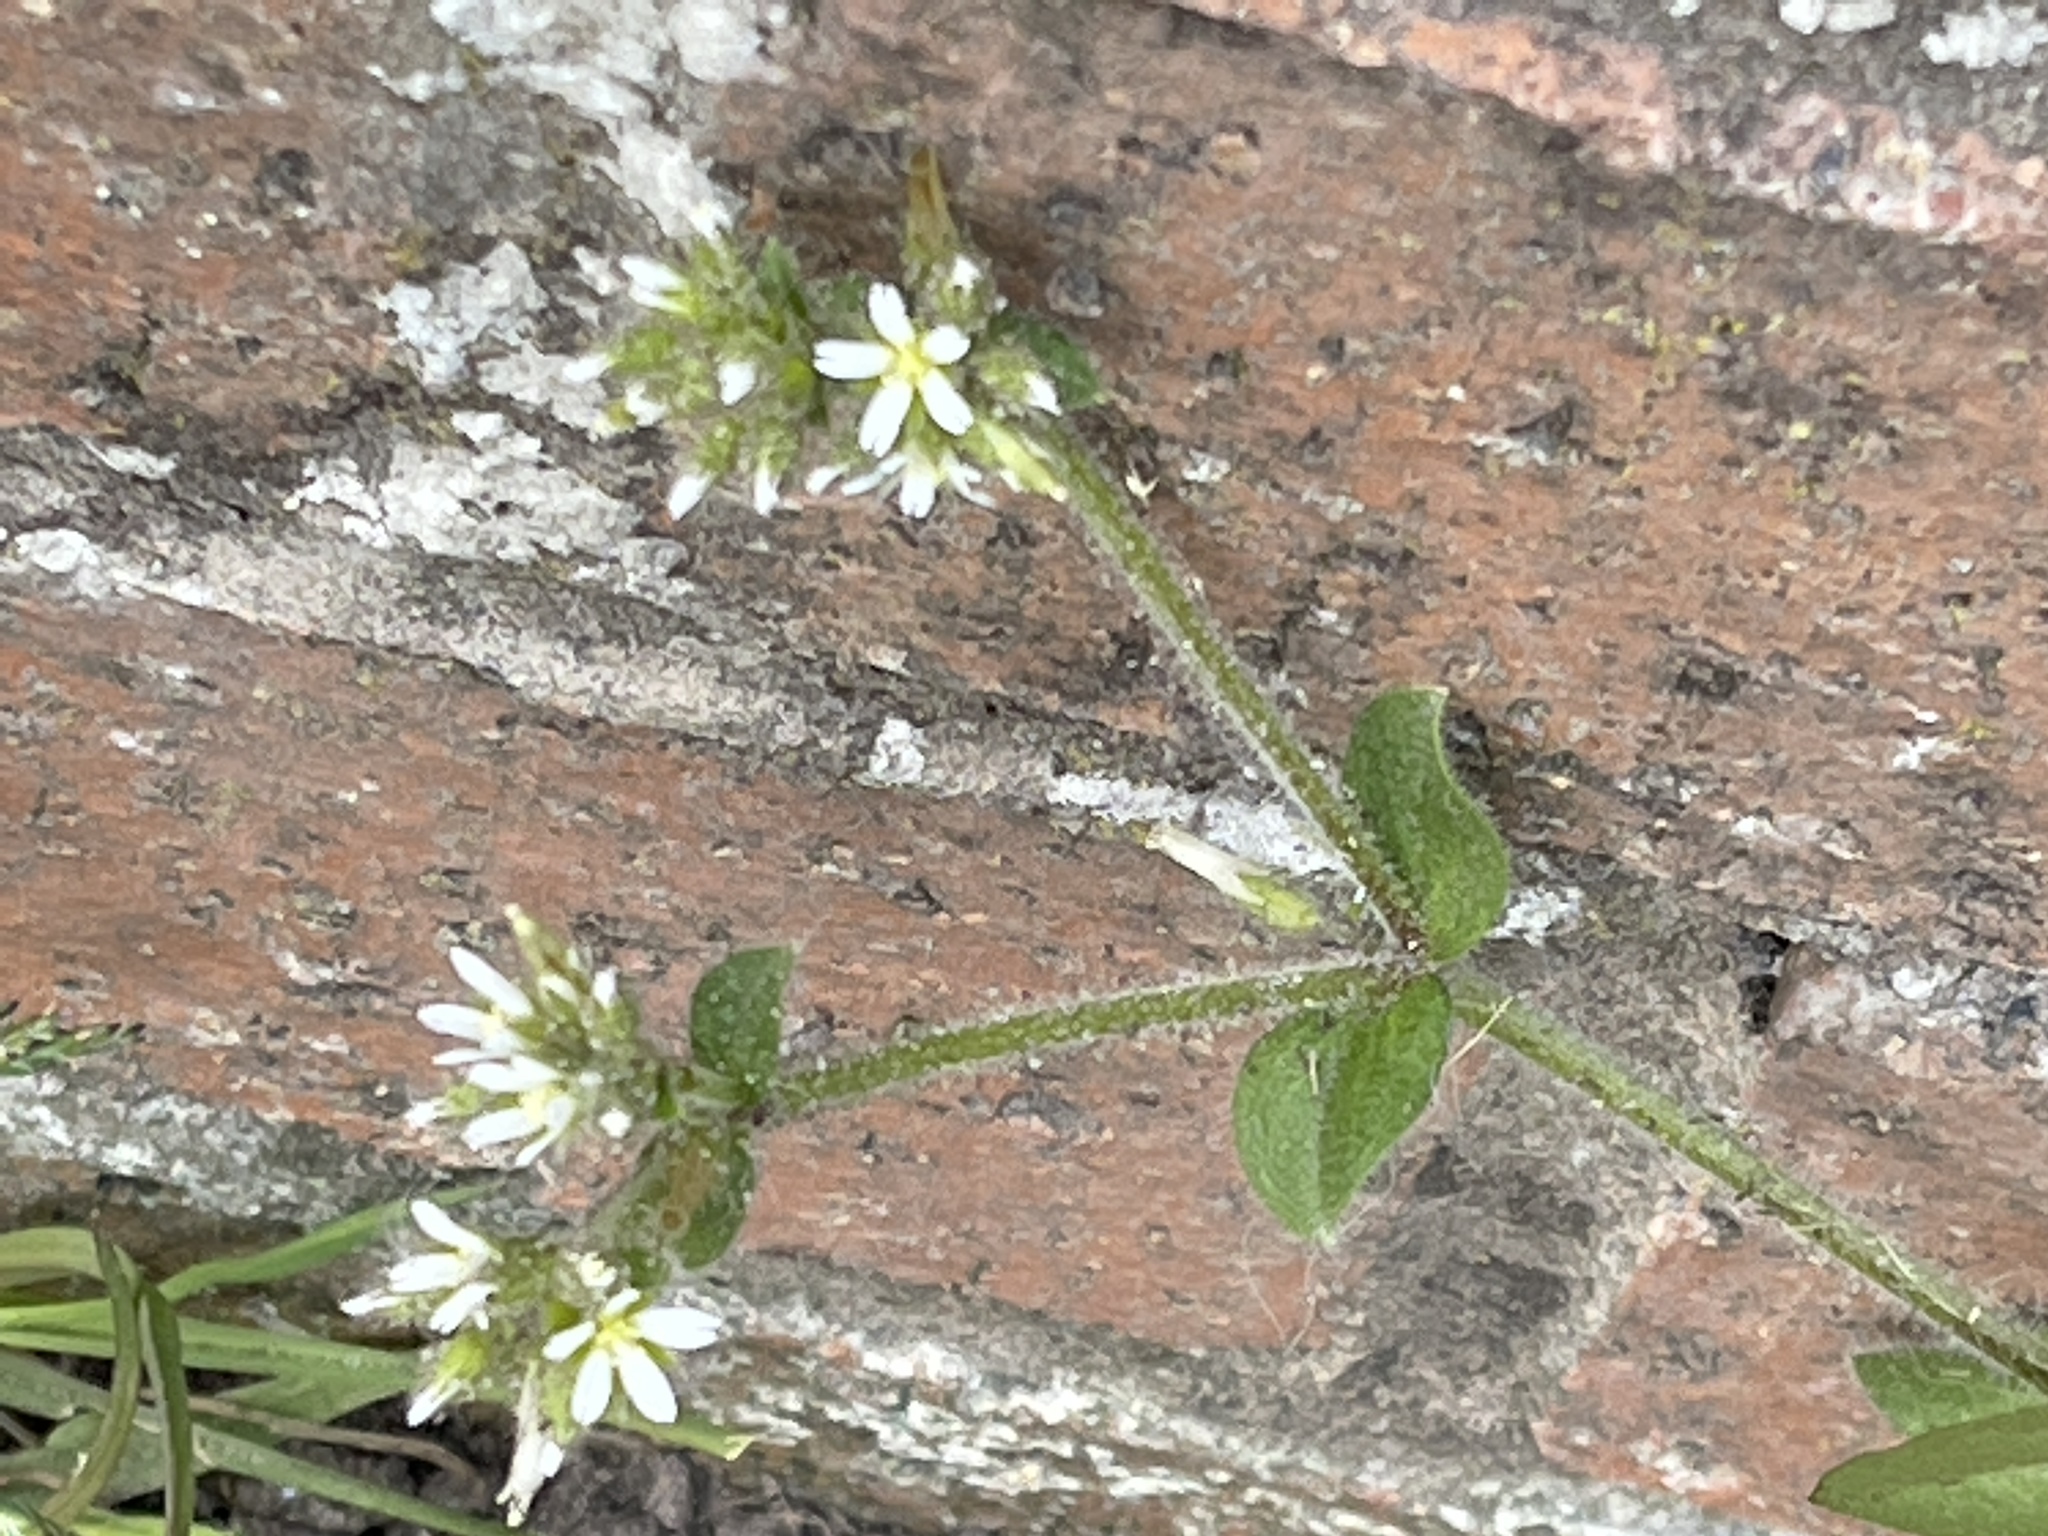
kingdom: Plantae
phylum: Tracheophyta
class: Magnoliopsida
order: Caryophyllales
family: Caryophyllaceae
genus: Cerastium
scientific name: Cerastium glomeratum
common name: Sticky chickweed
